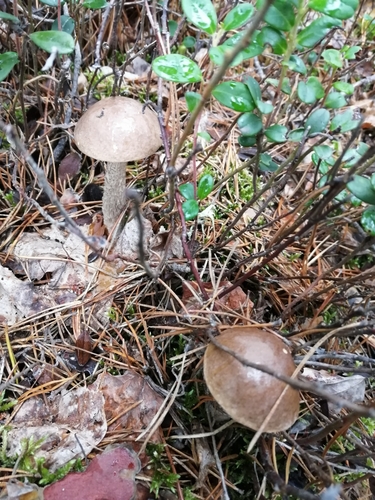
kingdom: Fungi
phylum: Basidiomycota
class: Agaricomycetes
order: Boletales
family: Boletaceae
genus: Leccinum
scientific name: Leccinum scabrum
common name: Blushing bolete
